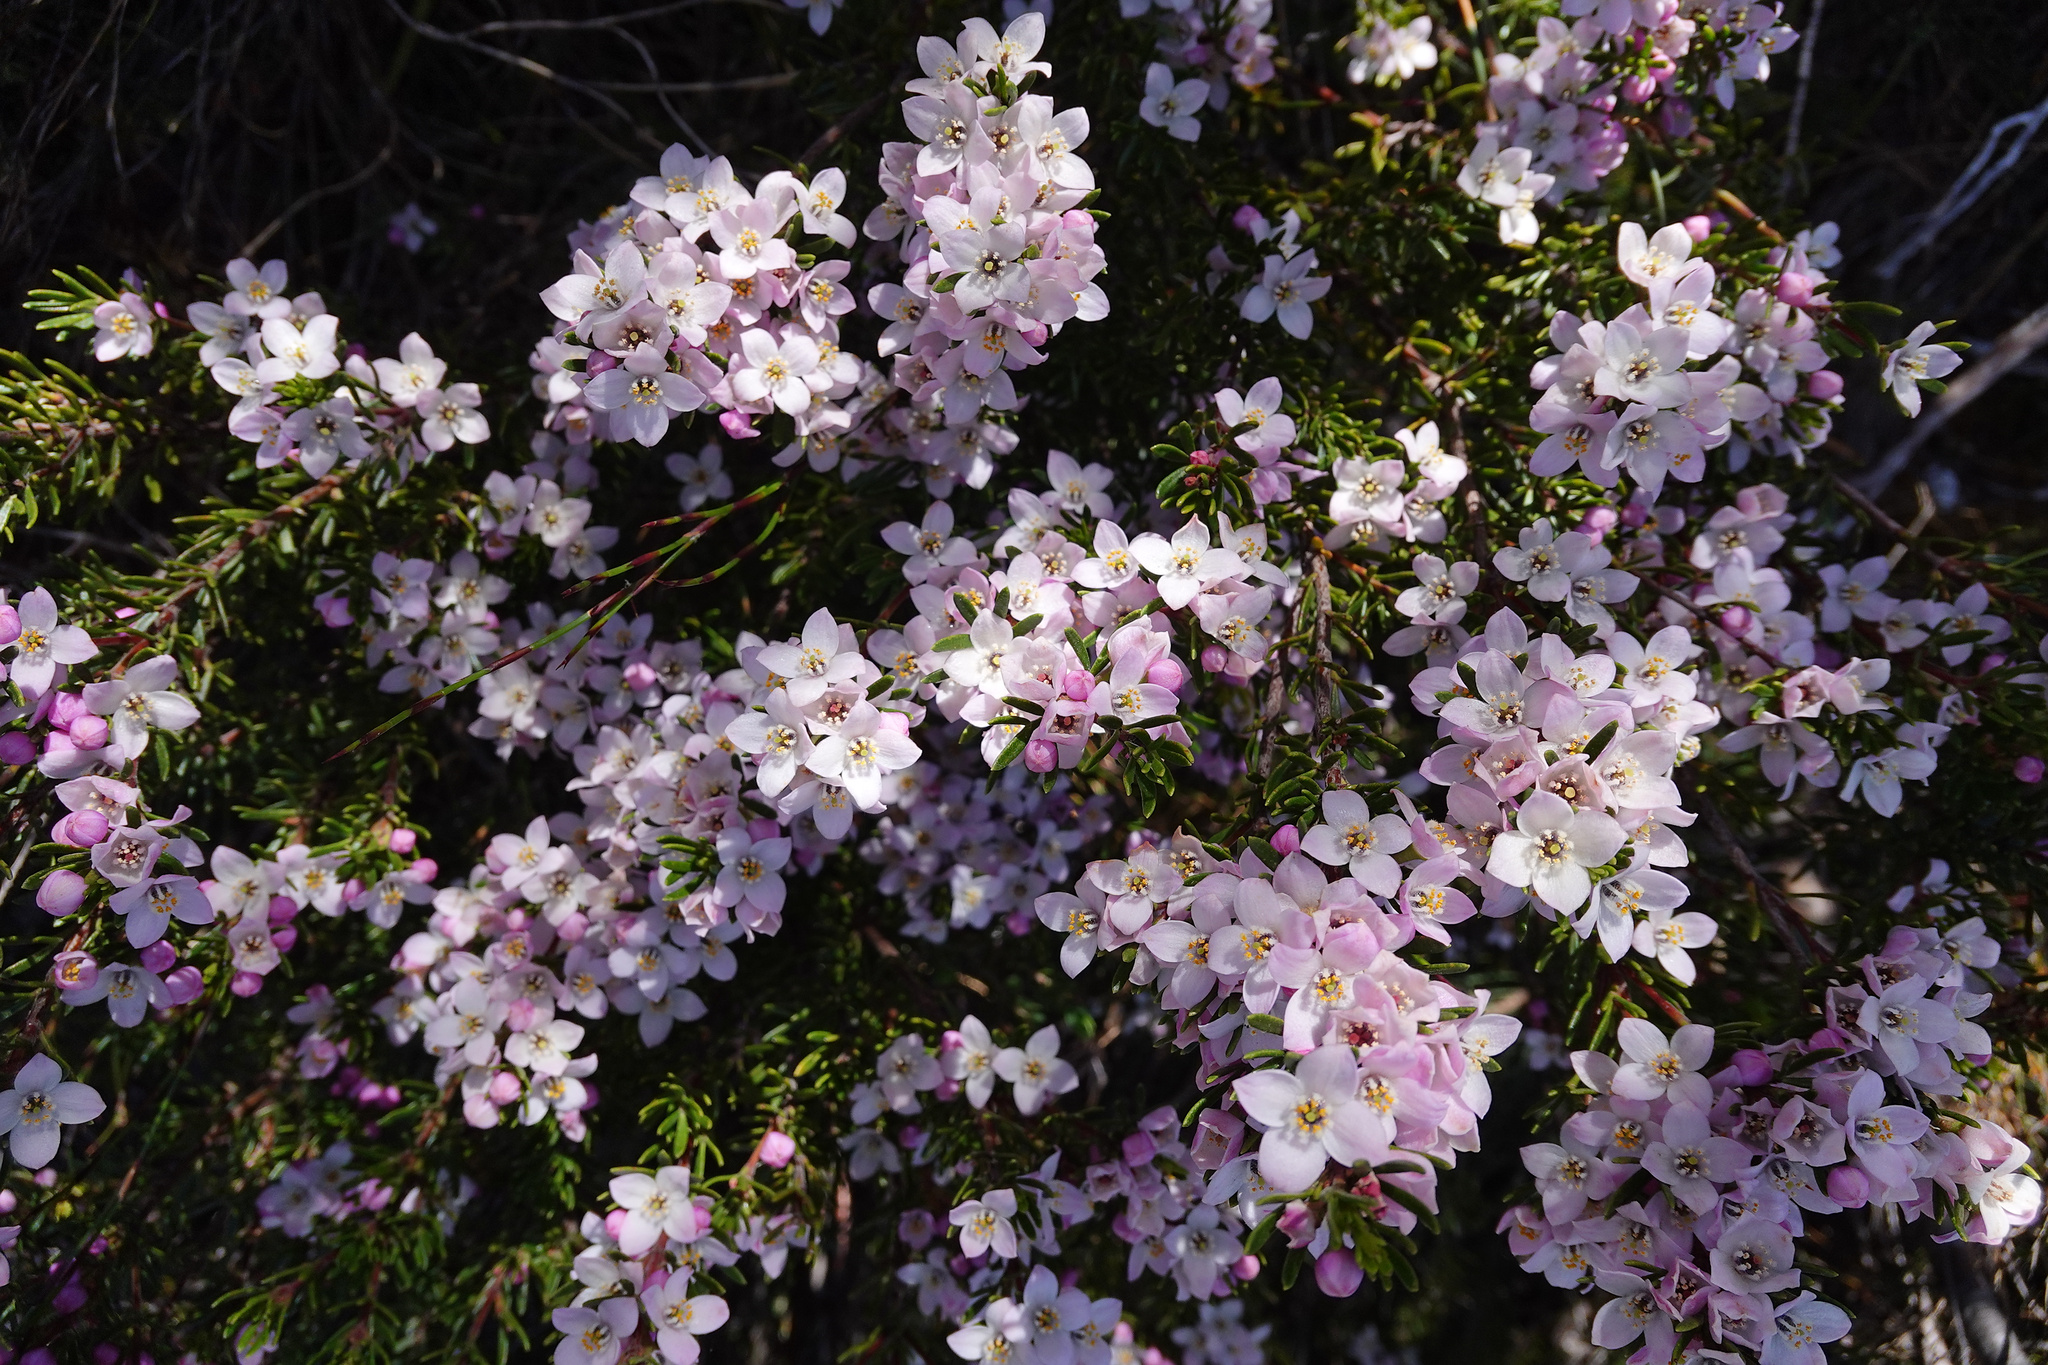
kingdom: Plantae
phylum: Tracheophyta
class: Magnoliopsida
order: Sapindales
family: Rutaceae
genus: Boronia
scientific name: Boronia citriodora
